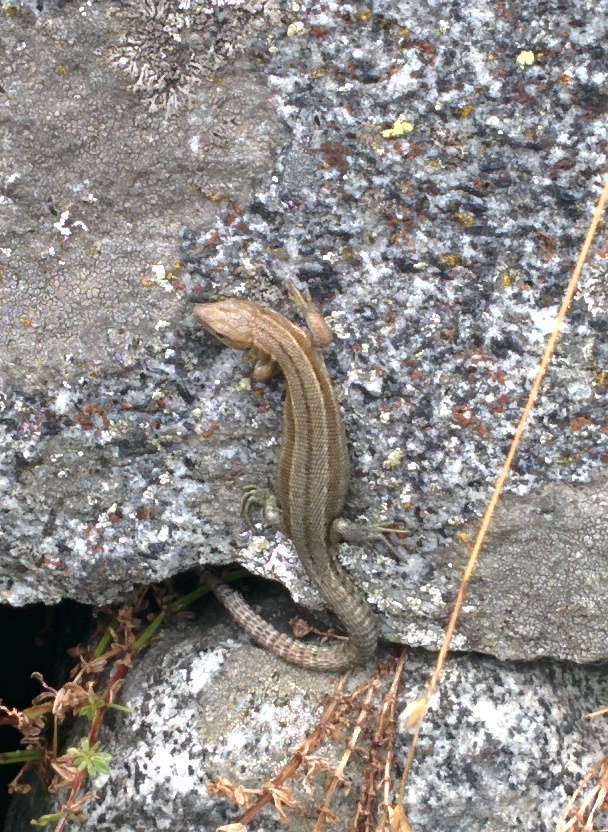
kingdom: Animalia
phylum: Chordata
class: Squamata
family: Lacertidae
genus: Zootoca
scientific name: Zootoca vivipara
